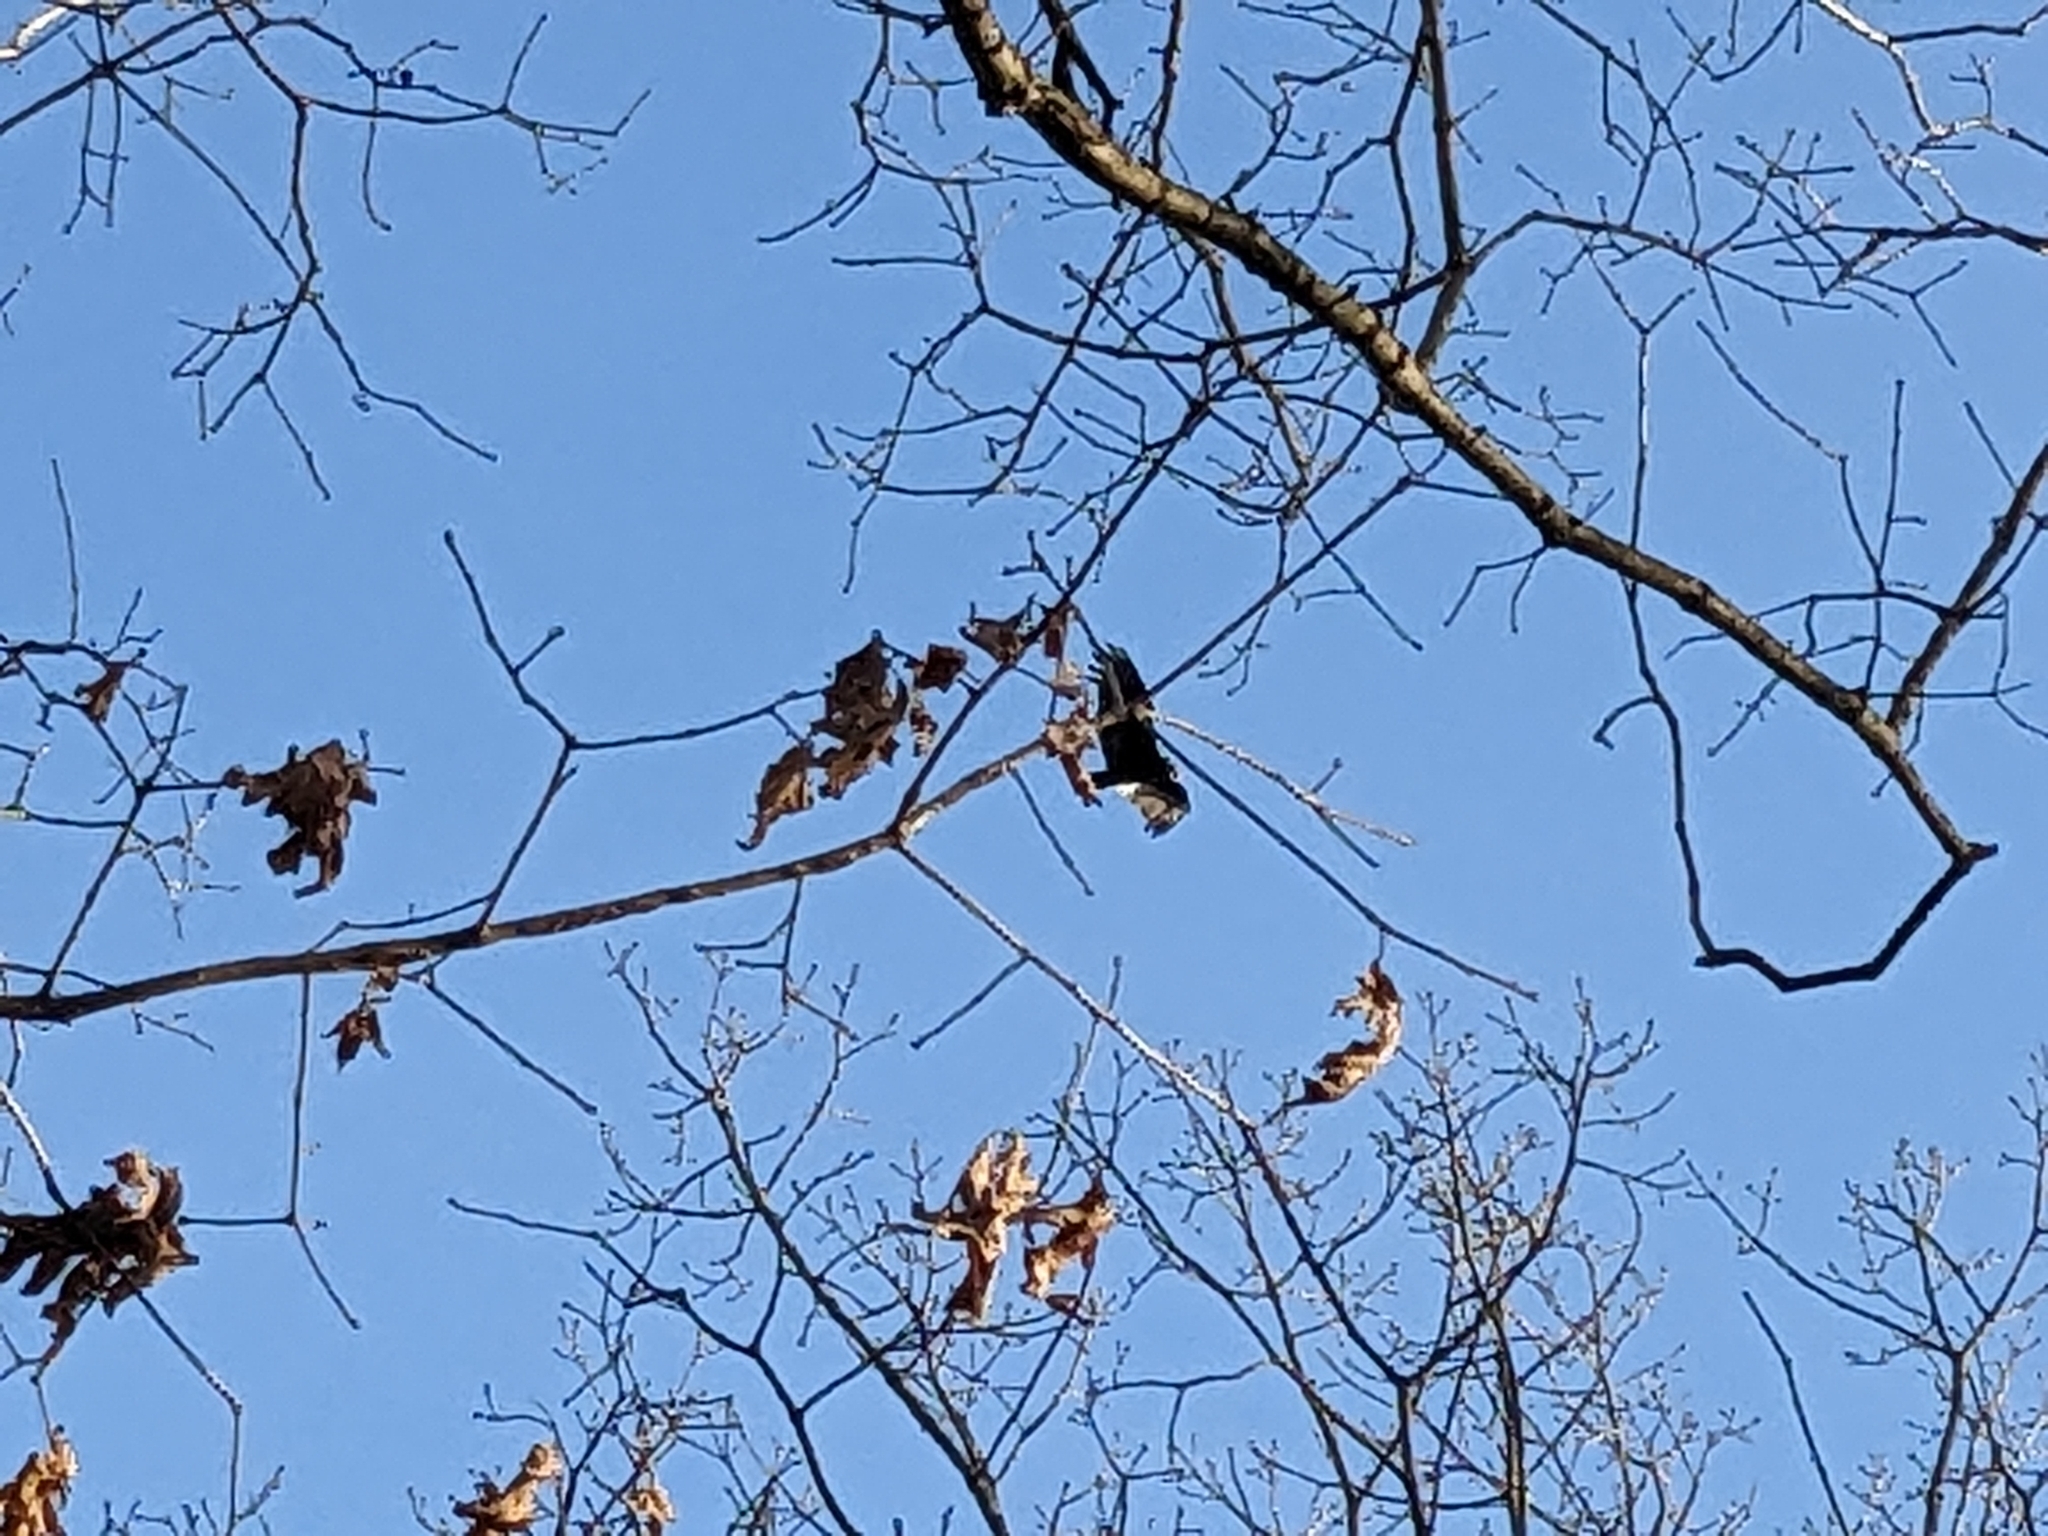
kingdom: Animalia
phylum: Chordata
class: Aves
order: Accipitriformes
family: Cathartidae
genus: Cathartes
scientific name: Cathartes aura
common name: Turkey vulture
